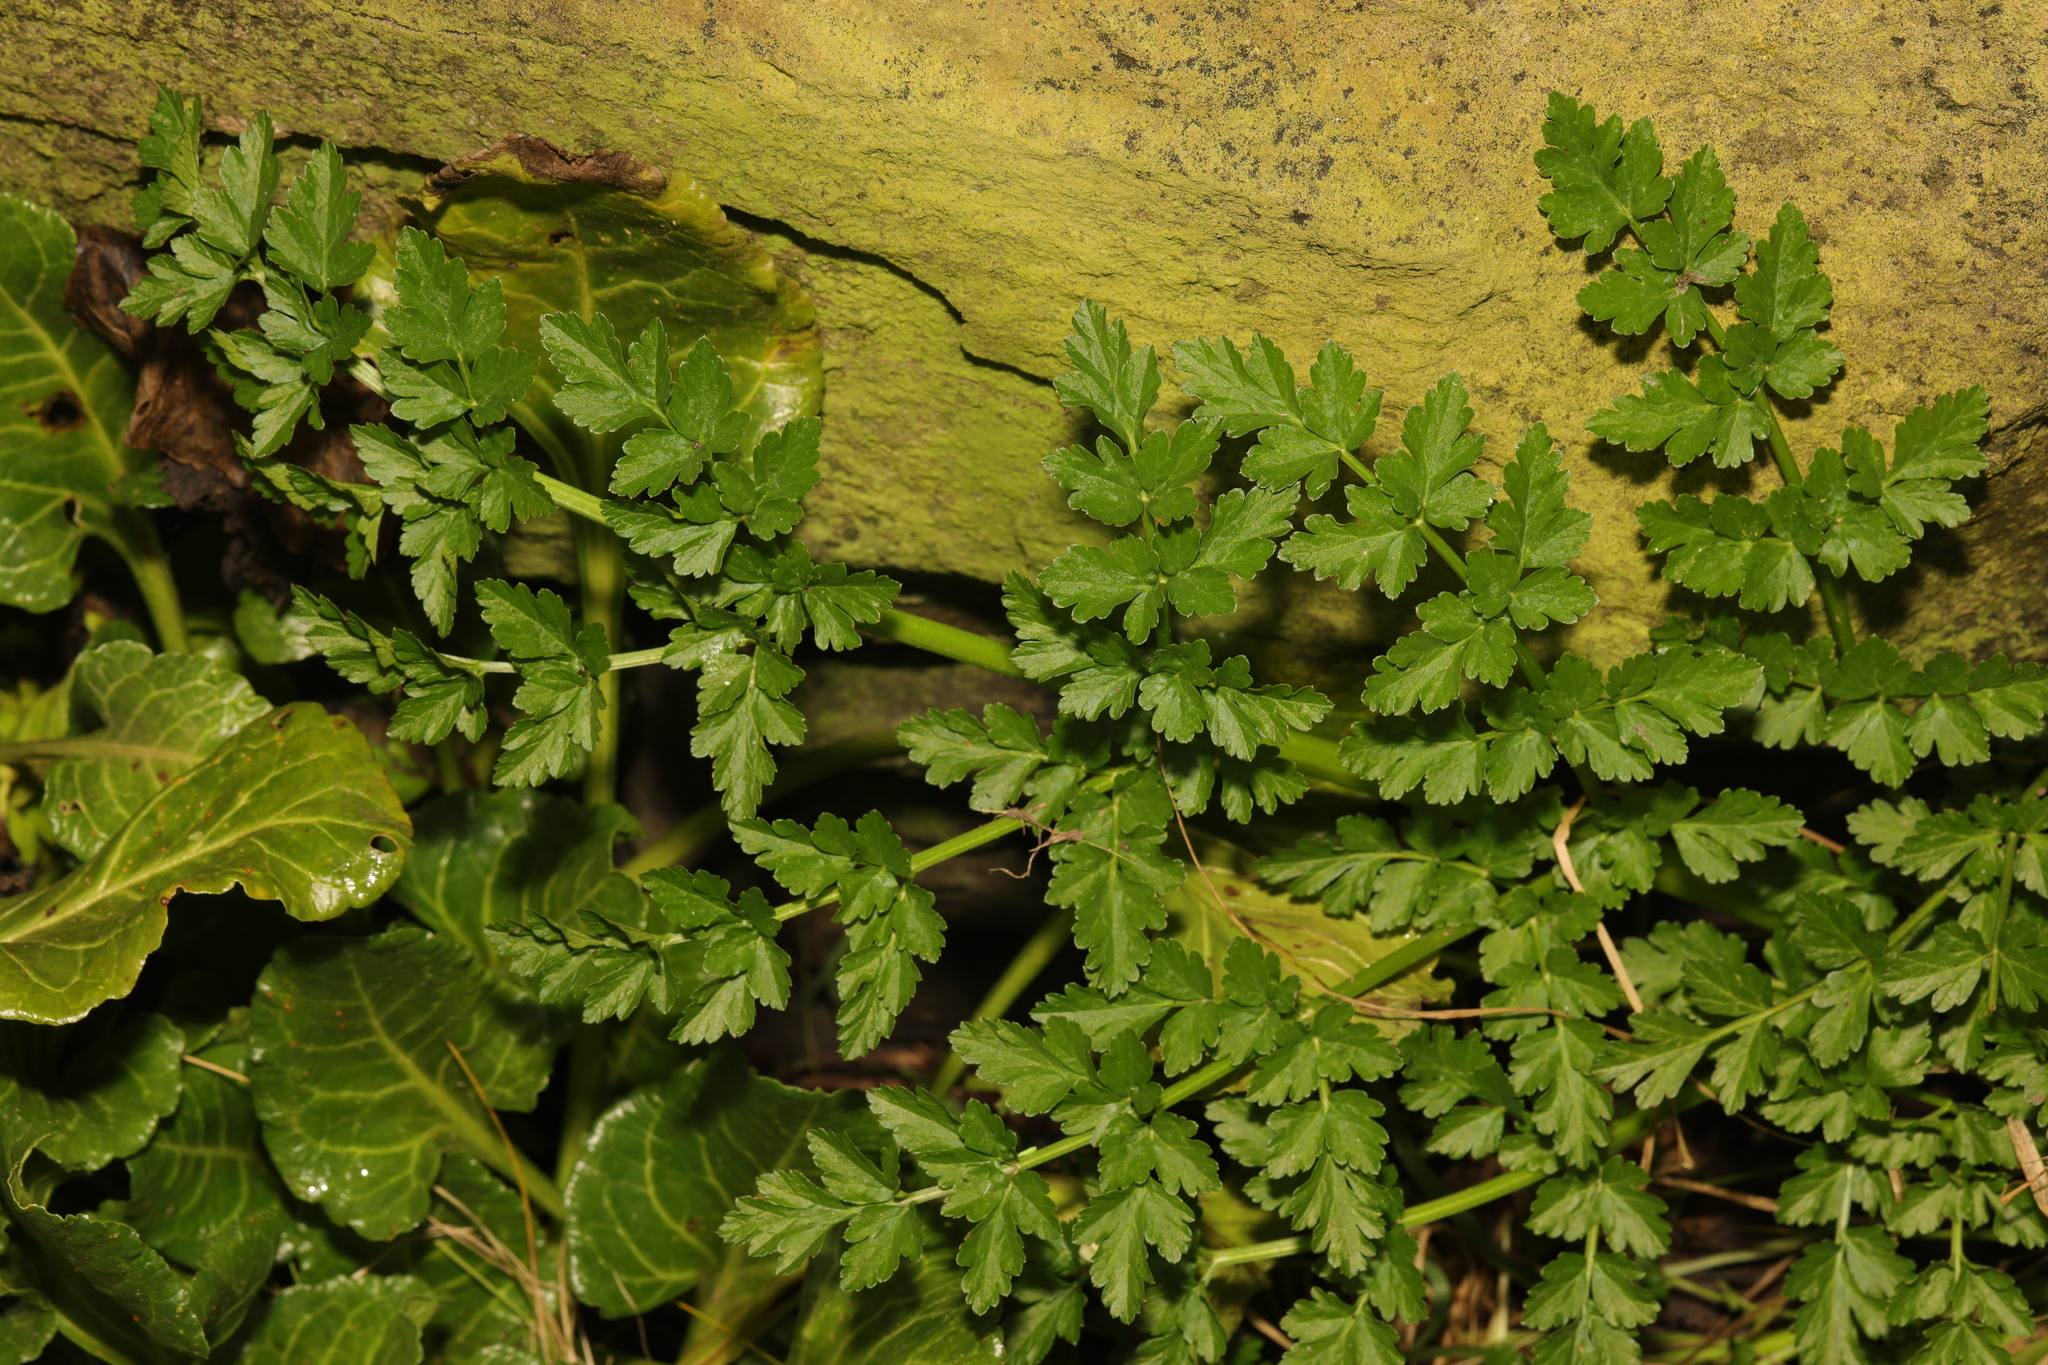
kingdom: Plantae
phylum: Tracheophyta
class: Magnoliopsida
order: Apiales
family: Apiaceae
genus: Oenanthe
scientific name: Oenanthe crocata
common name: Hemlock water-dropwort
